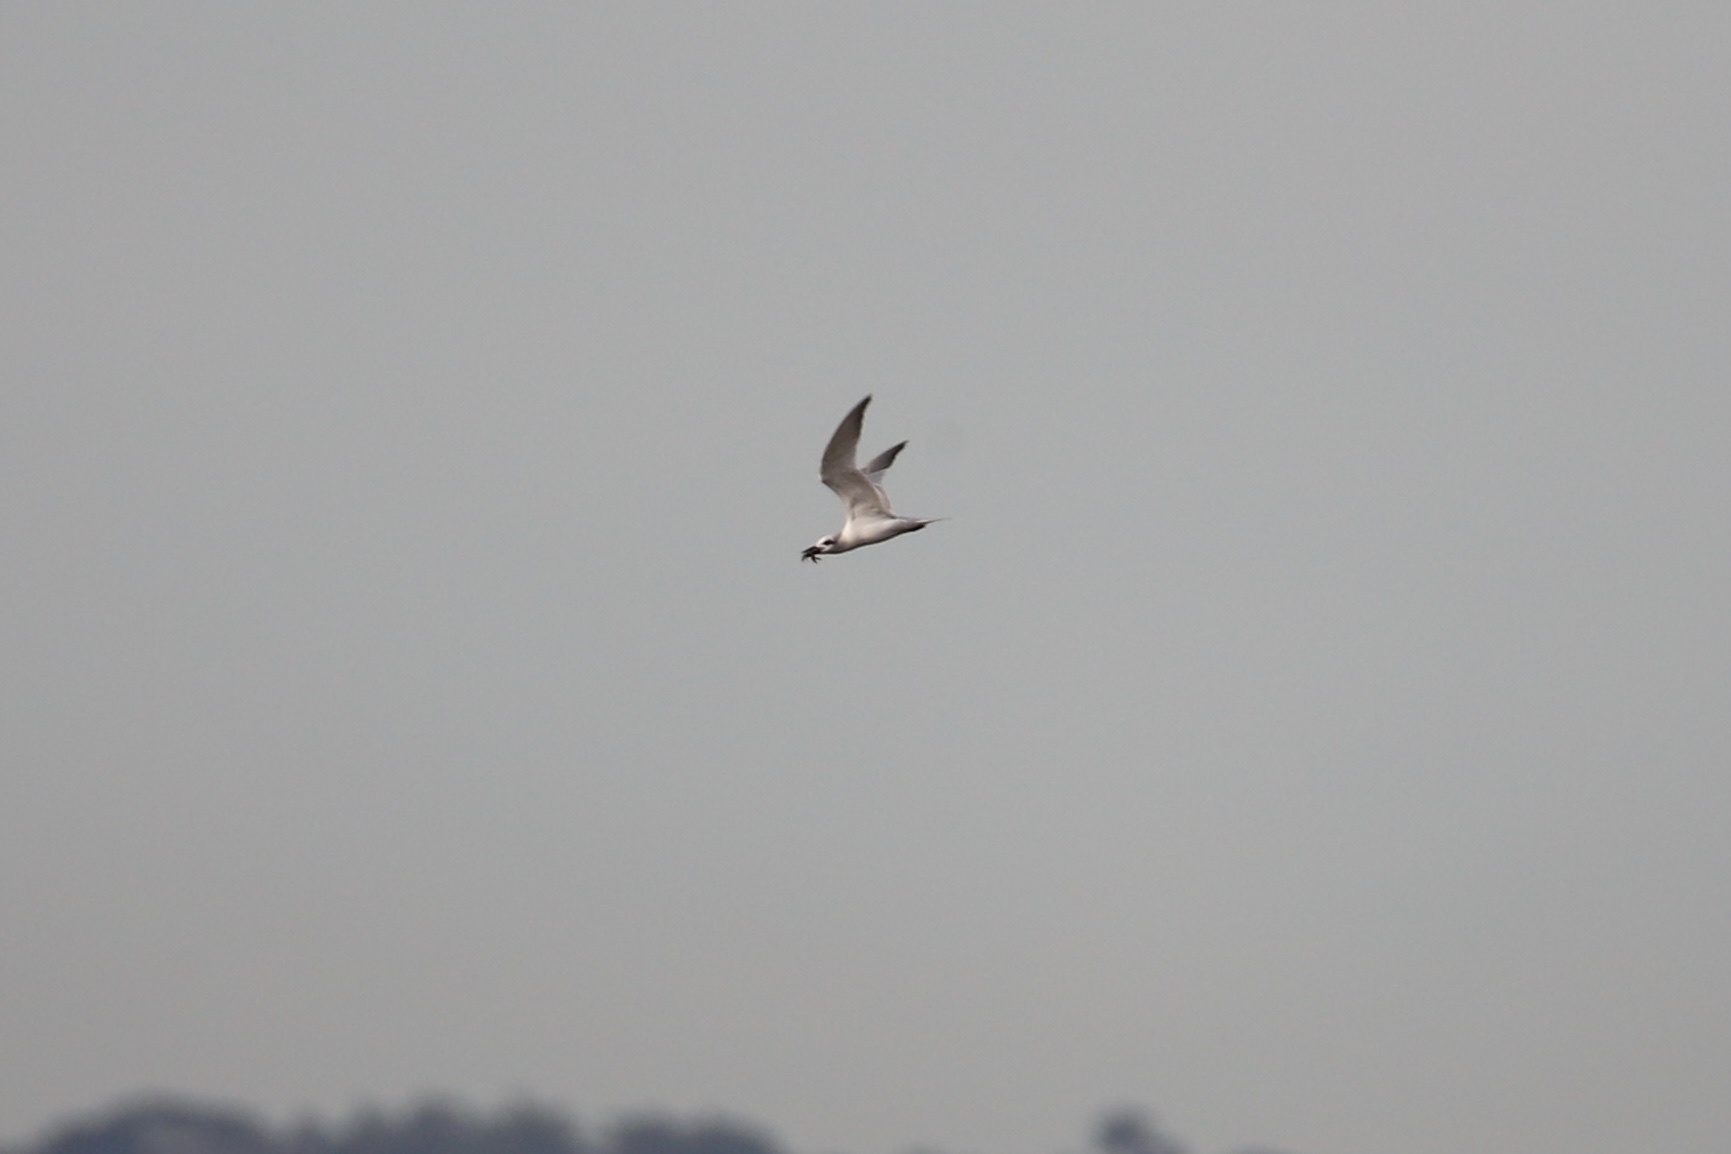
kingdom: Animalia
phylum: Chordata
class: Aves
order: Charadriiformes
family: Laridae
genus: Gelochelidon
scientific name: Gelochelidon nilotica
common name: Gull-billed tern
